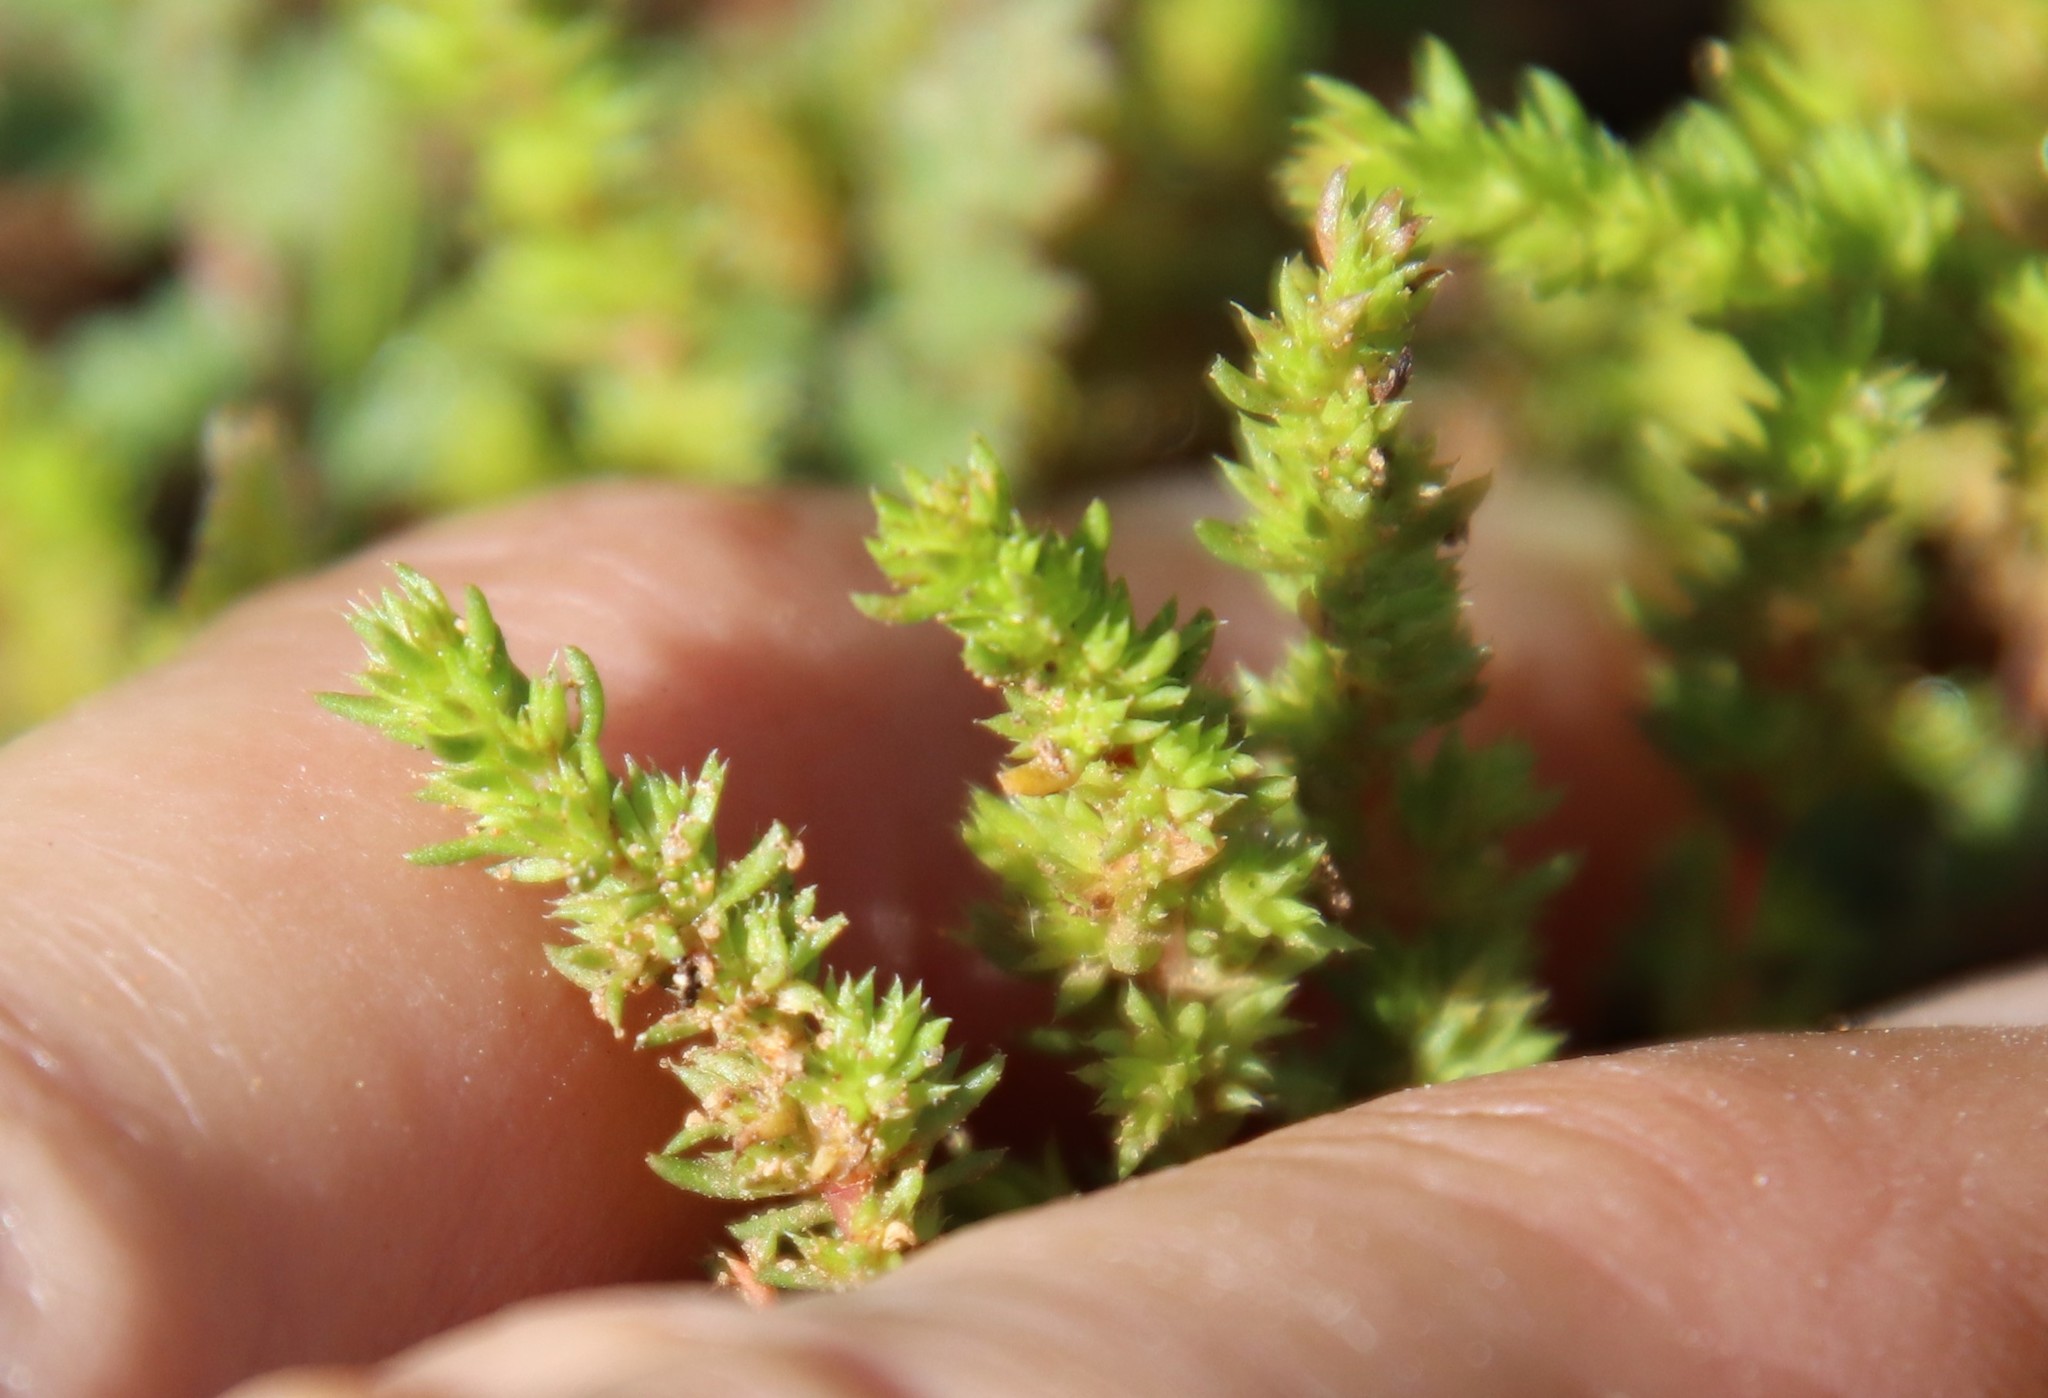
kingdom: Plantae
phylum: Tracheophyta
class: Magnoliopsida
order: Saxifragales
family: Crassulaceae
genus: Crassula
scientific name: Crassula tillaea
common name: Mossy stonecrop
